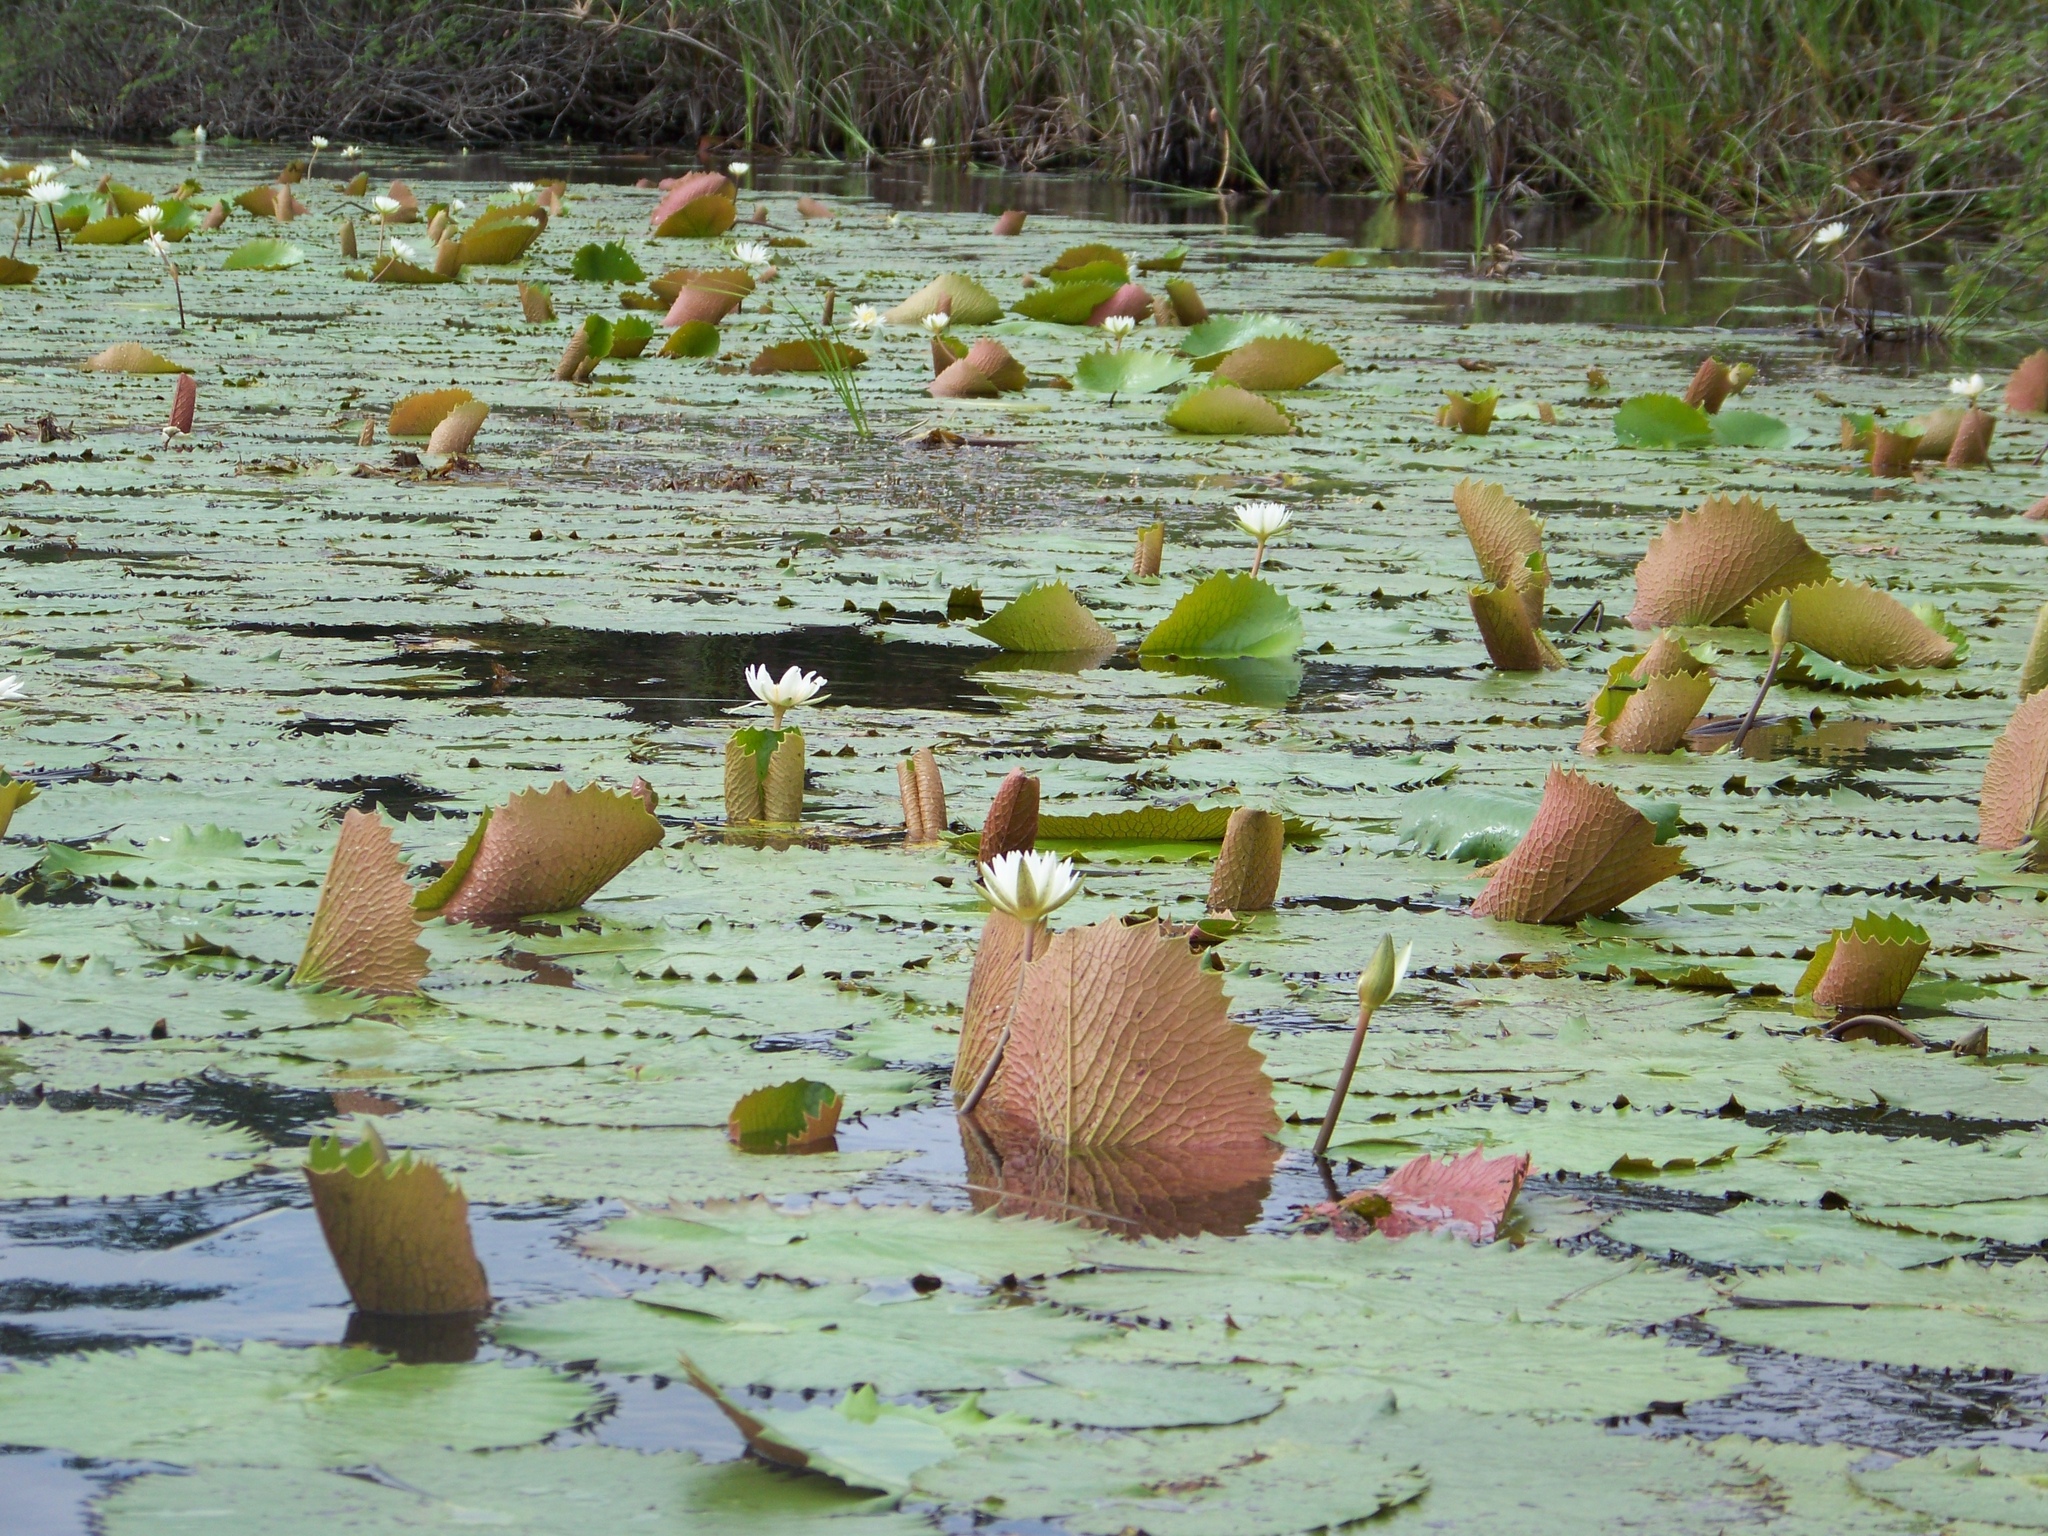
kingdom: Plantae
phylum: Tracheophyta
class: Magnoliopsida
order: Nymphaeales
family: Nymphaeaceae
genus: Nymphaea
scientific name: Nymphaea ampla
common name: Dotleaf waterlily
